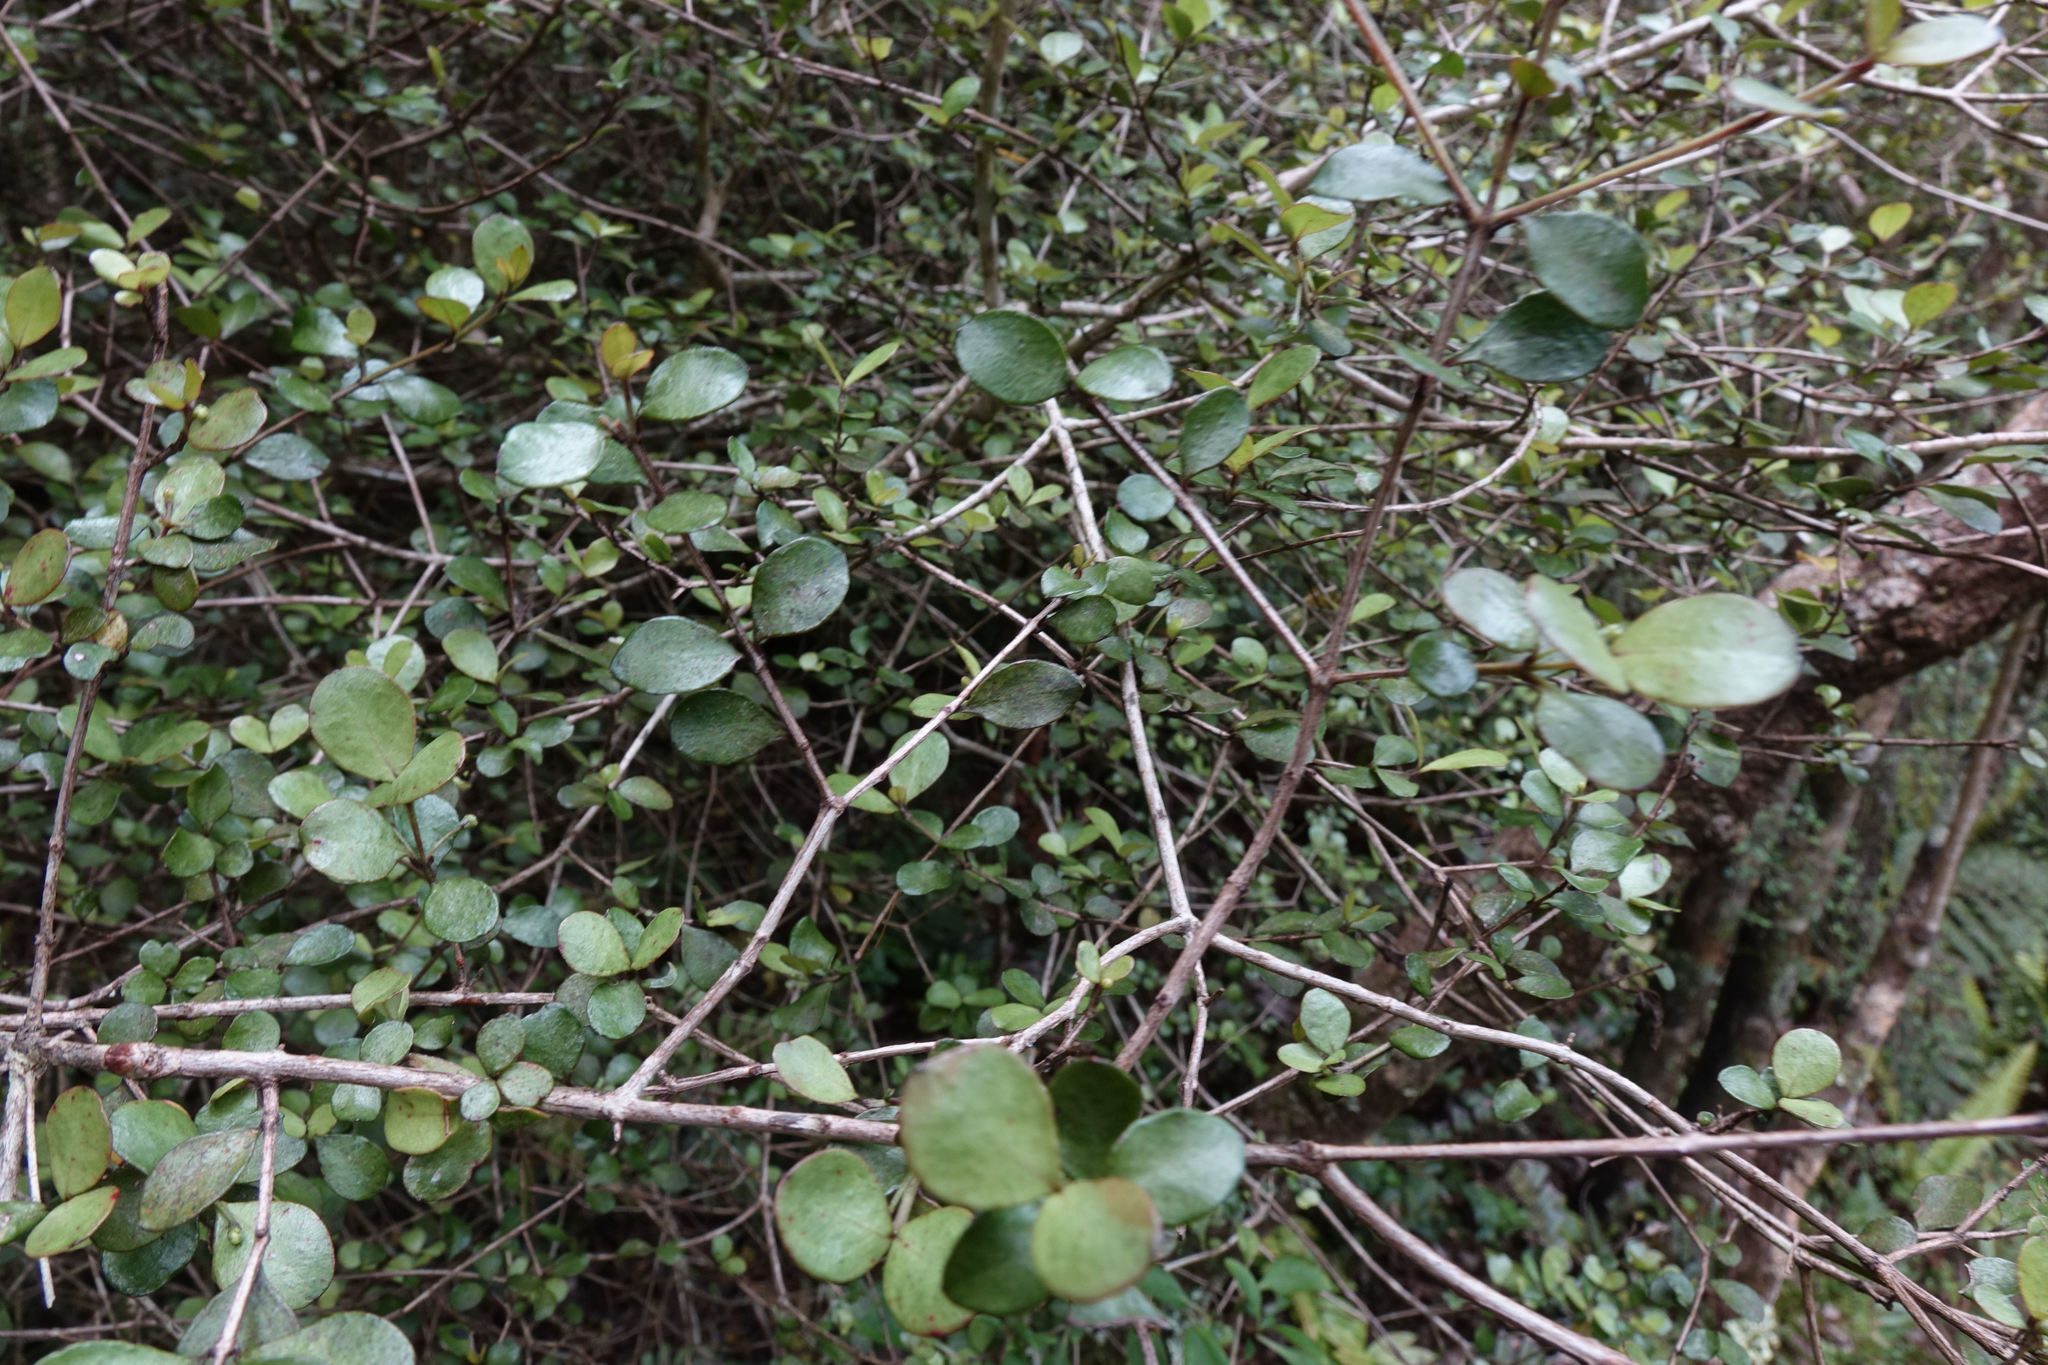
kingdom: Plantae
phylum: Tracheophyta
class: Magnoliopsida
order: Myrtales
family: Myrtaceae
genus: Neomyrtus
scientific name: Neomyrtus pedunculata
